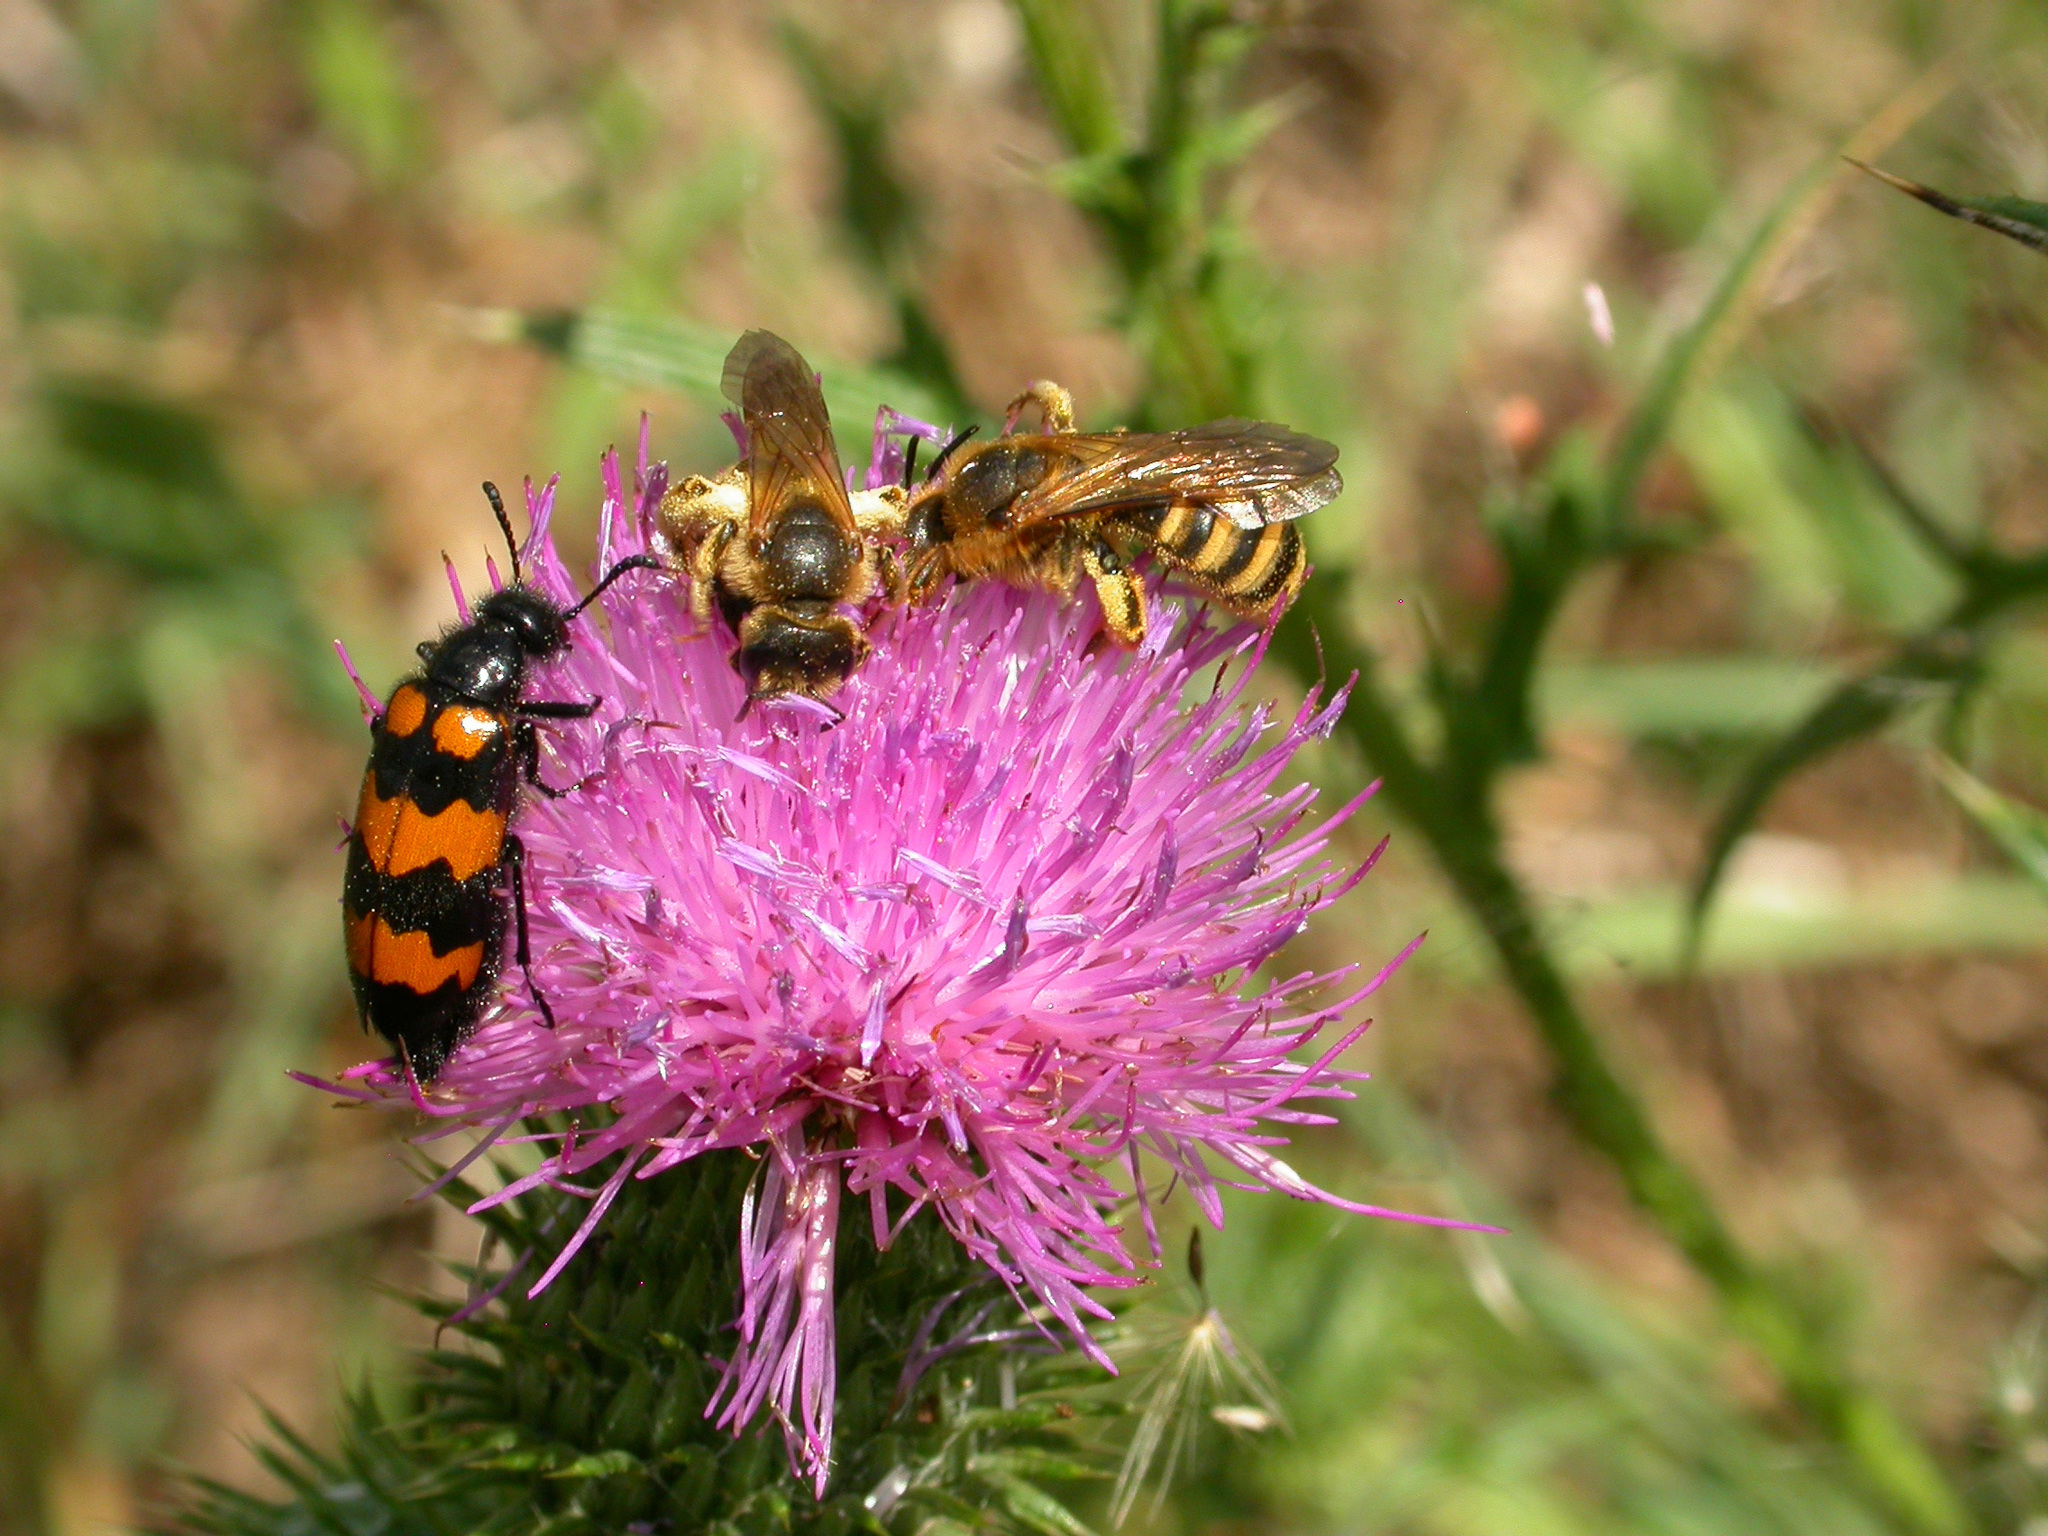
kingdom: Animalia
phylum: Arthropoda
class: Insecta
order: Hymenoptera
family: Halictidae
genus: Halictus
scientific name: Halictus scabiosae
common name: Great banded furrow bee
